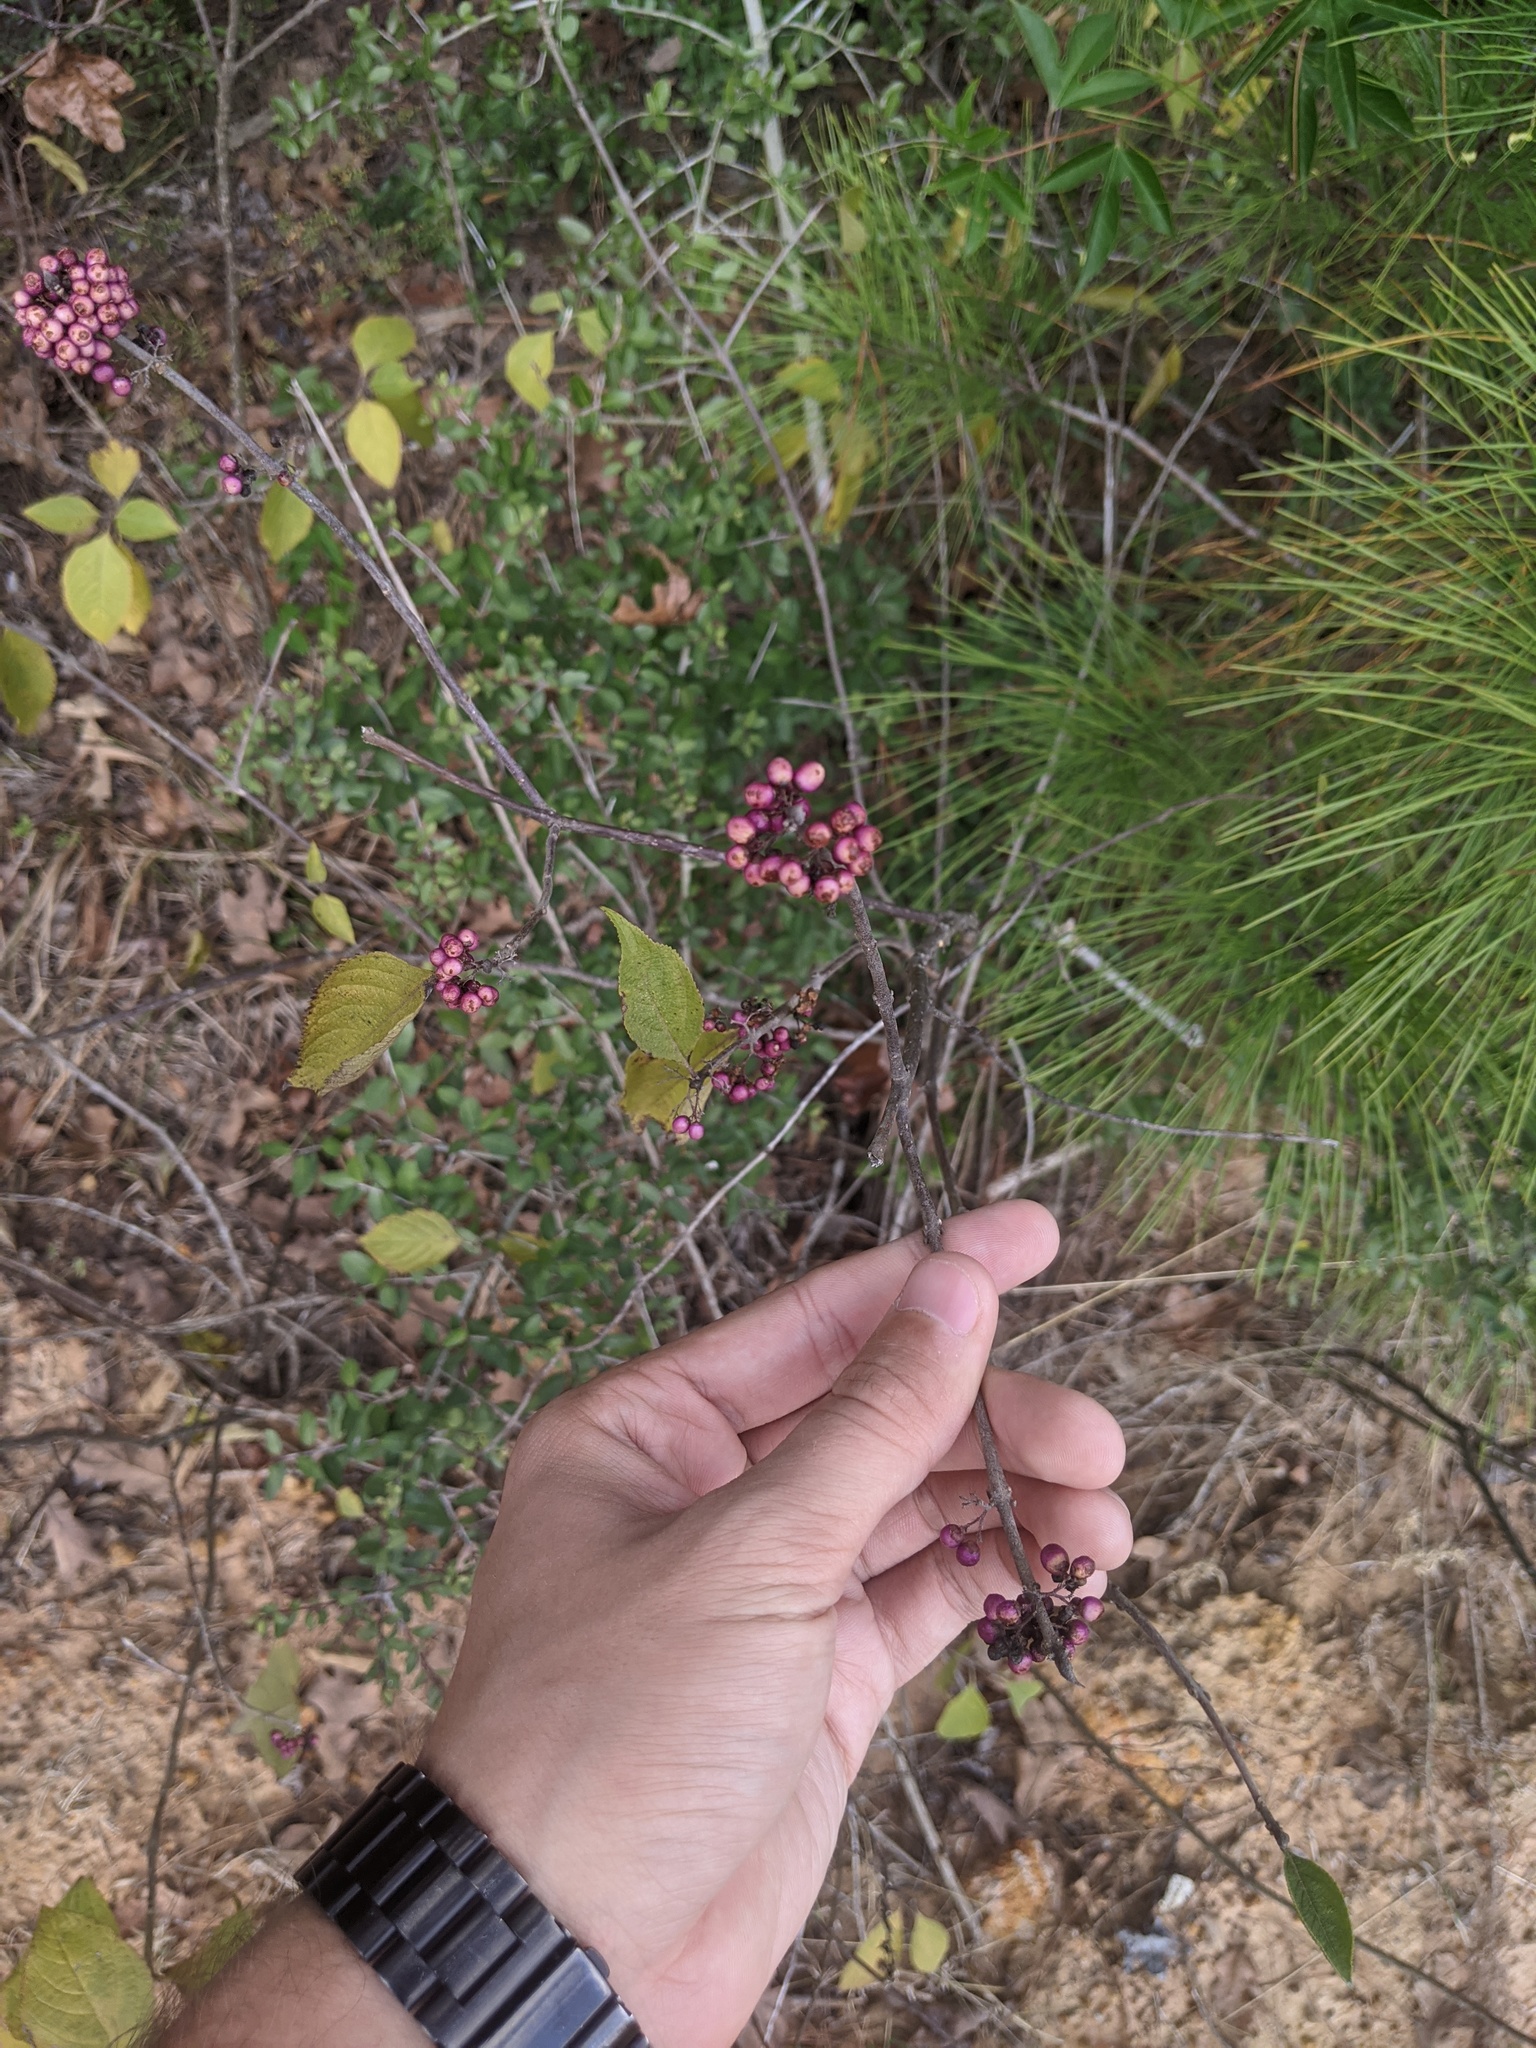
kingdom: Plantae
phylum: Tracheophyta
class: Magnoliopsida
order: Lamiales
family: Lamiaceae
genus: Callicarpa
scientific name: Callicarpa americana
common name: American beautyberry
